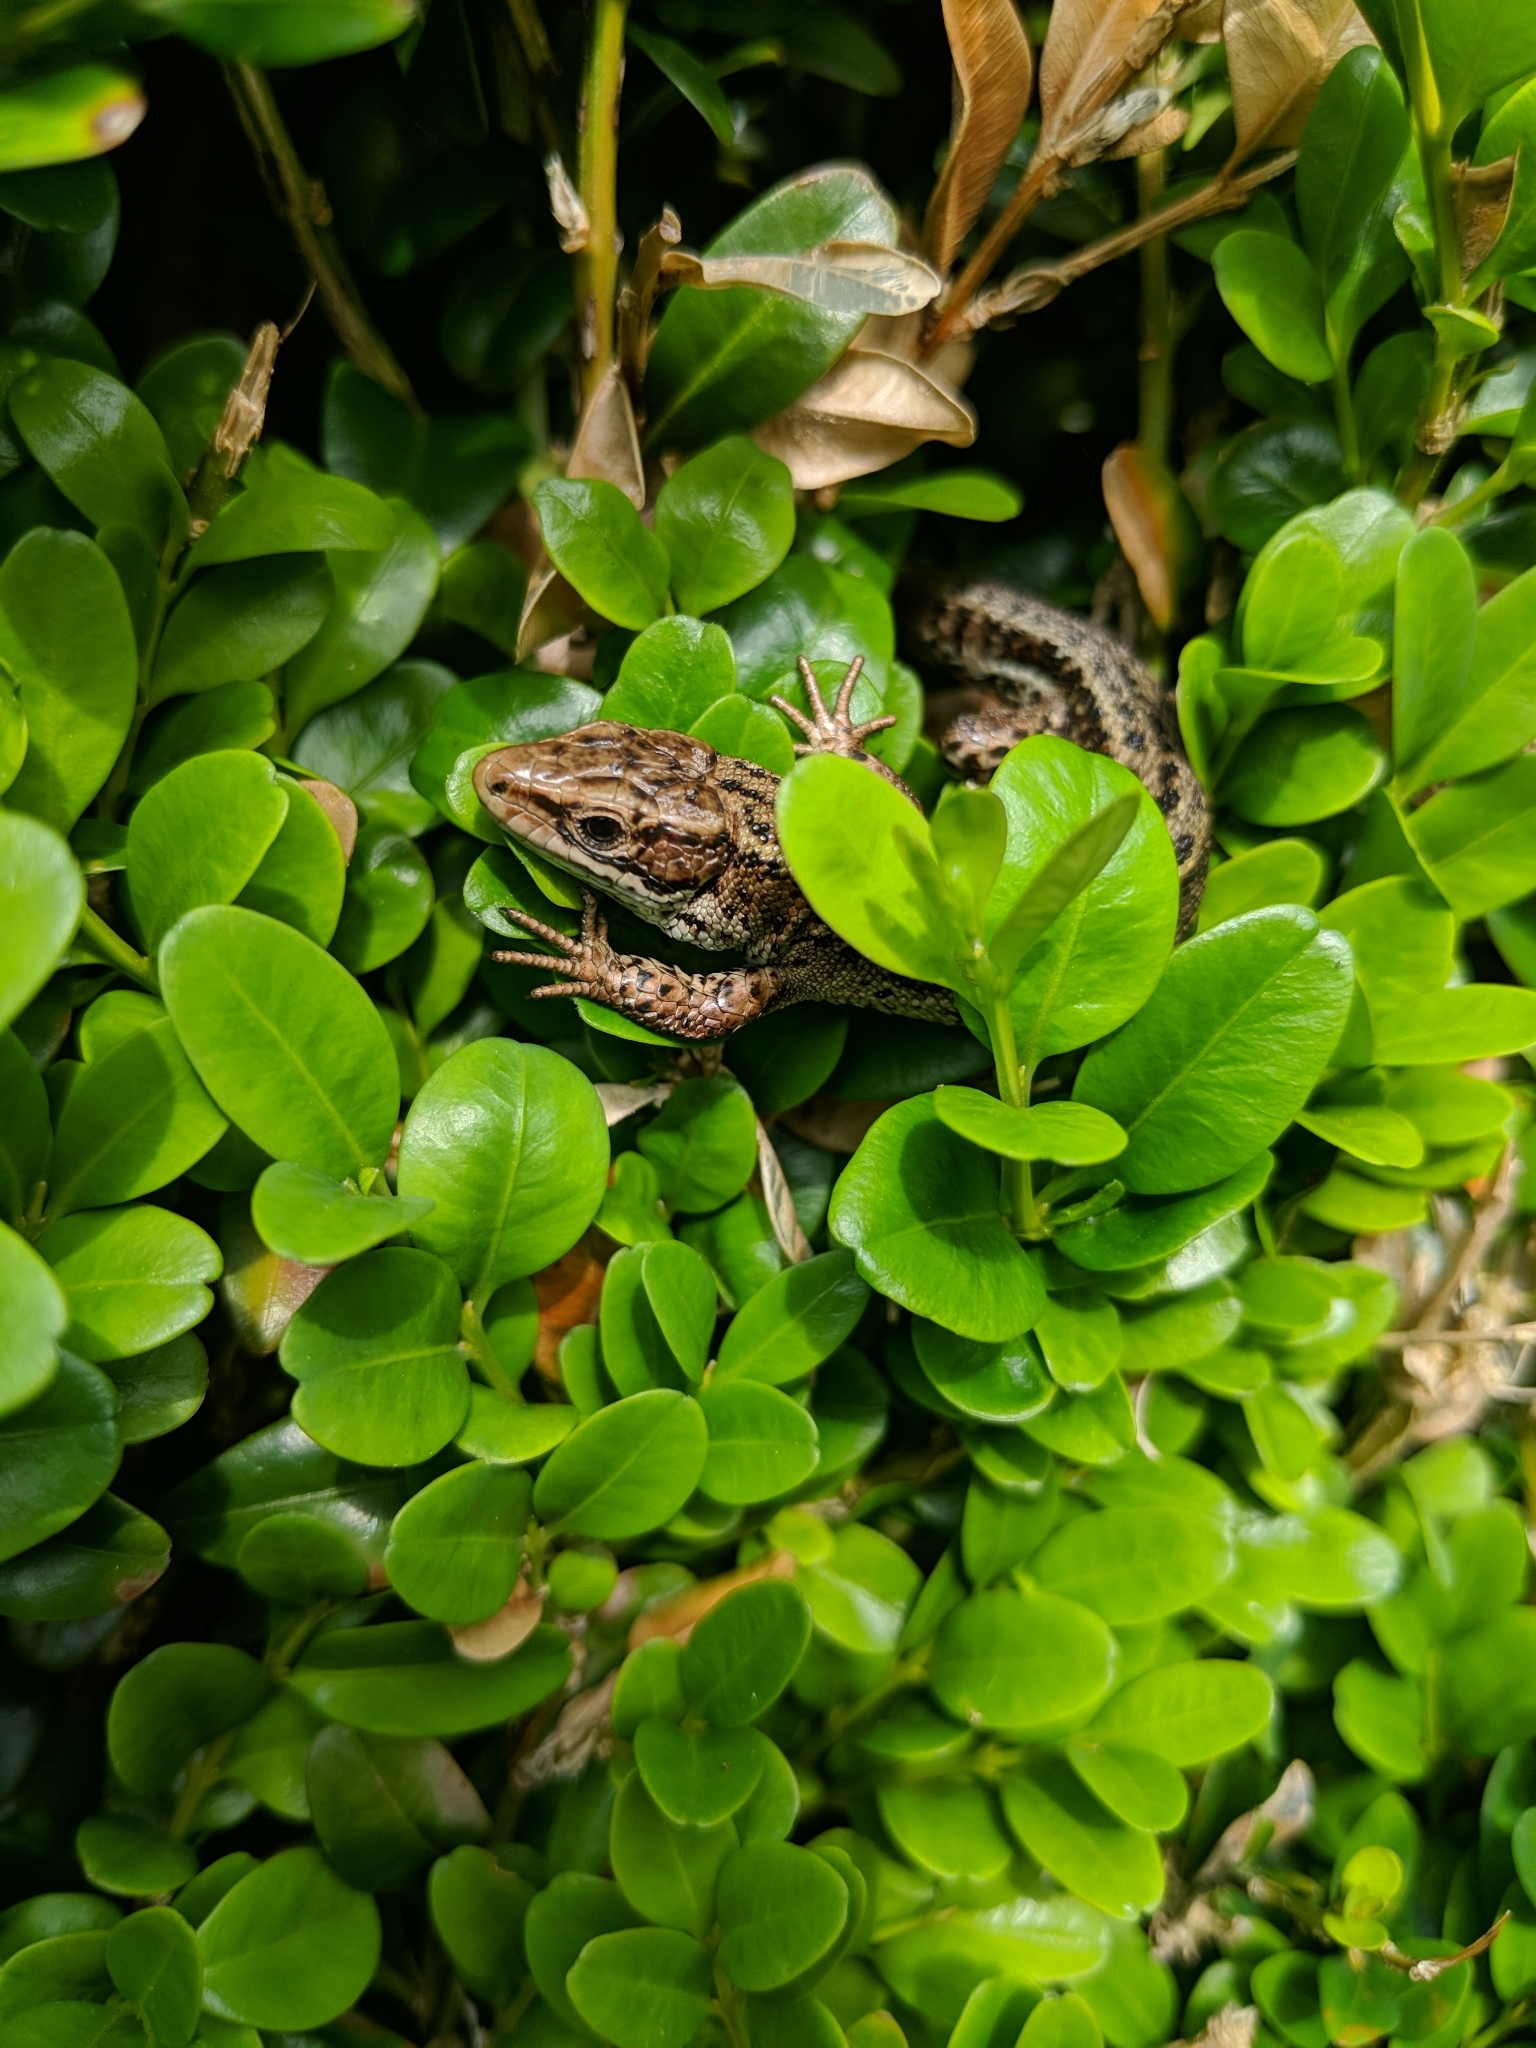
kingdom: Animalia
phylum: Chordata
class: Squamata
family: Lacertidae
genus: Zootoca
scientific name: Zootoca vivipara
